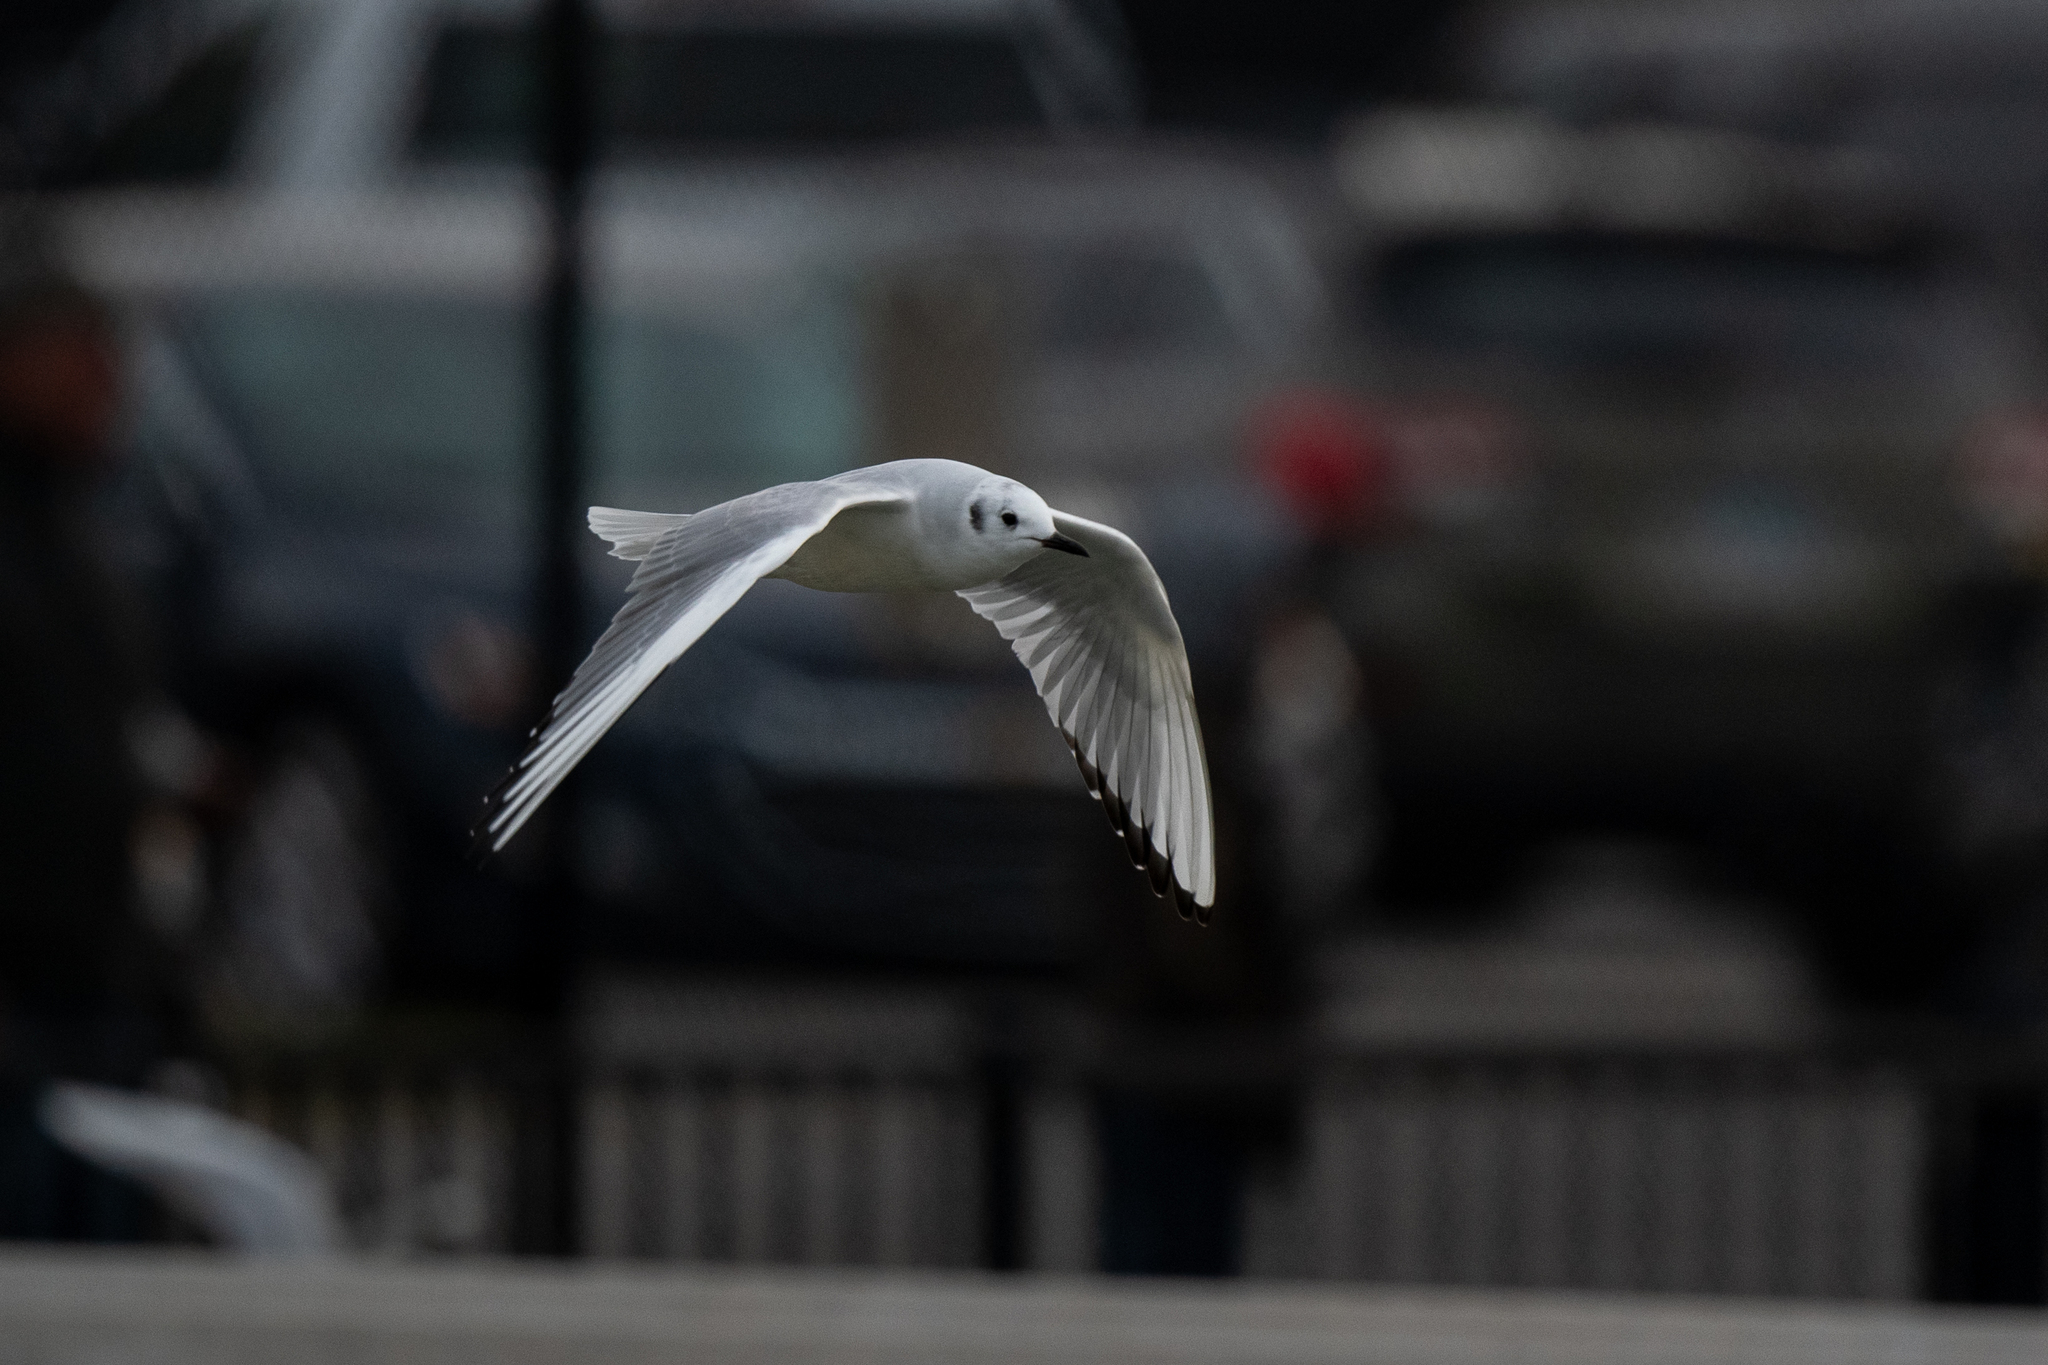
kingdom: Animalia
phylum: Chordata
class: Aves
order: Charadriiformes
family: Laridae
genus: Chroicocephalus
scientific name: Chroicocephalus philadelphia
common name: Bonaparte's gull
